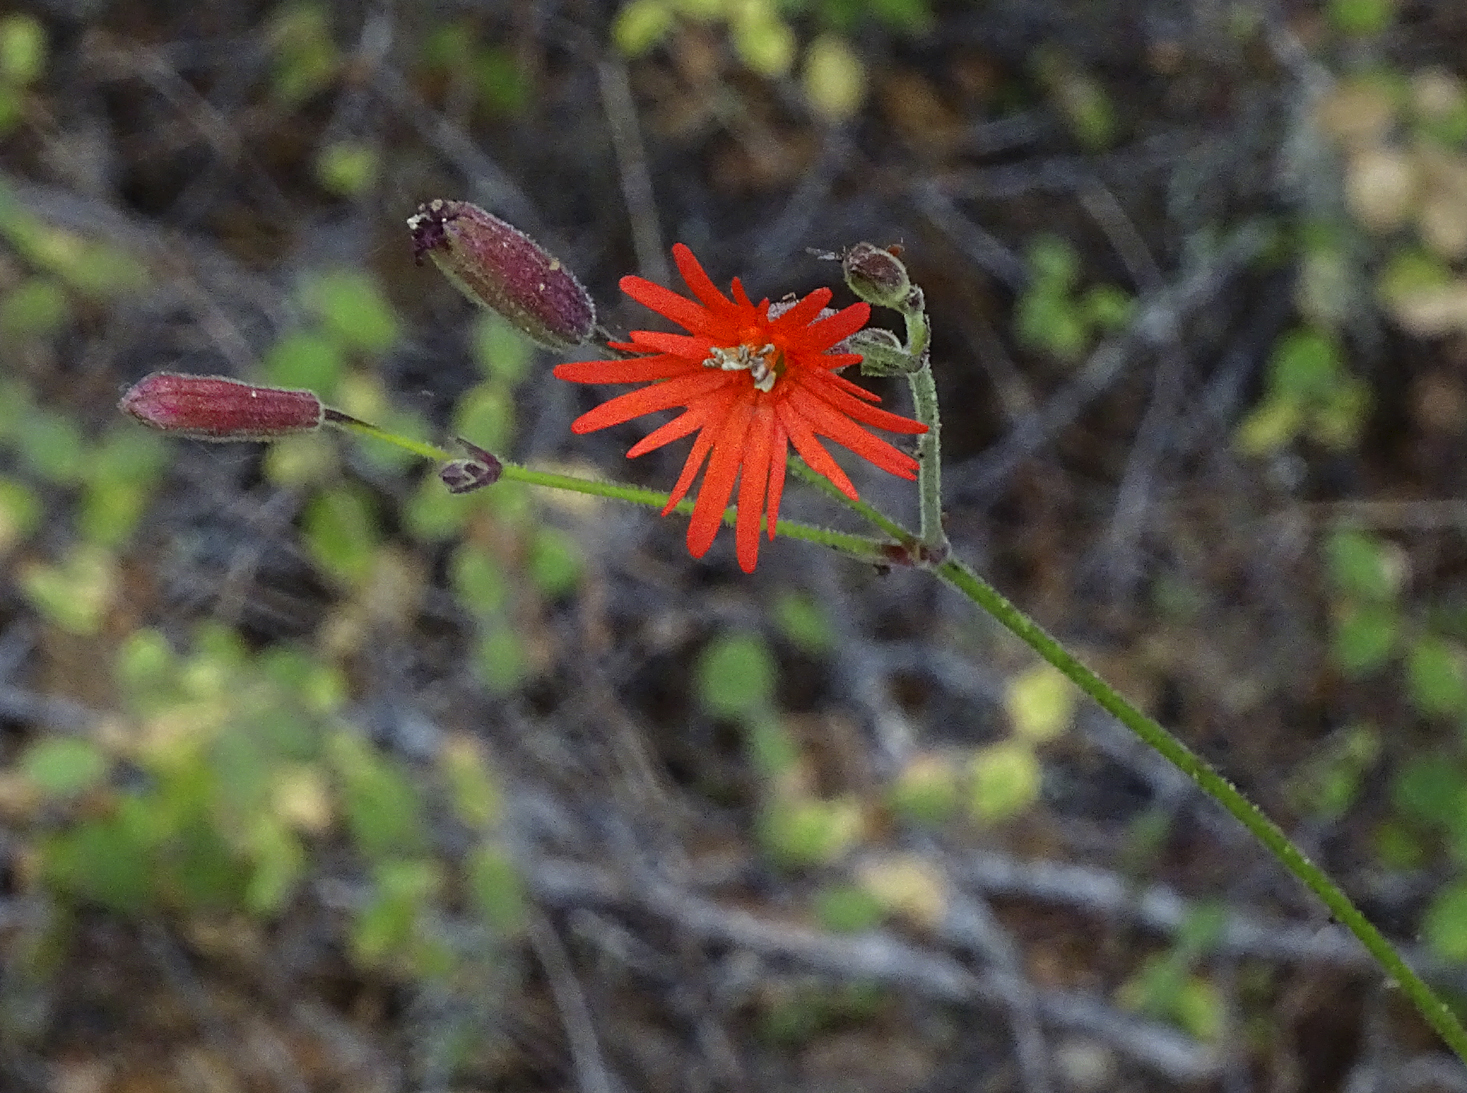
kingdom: Plantae
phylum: Tracheophyta
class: Magnoliopsida
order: Caryophyllales
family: Caryophyllaceae
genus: Silene
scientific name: Silene laciniata
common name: Indian-pink
